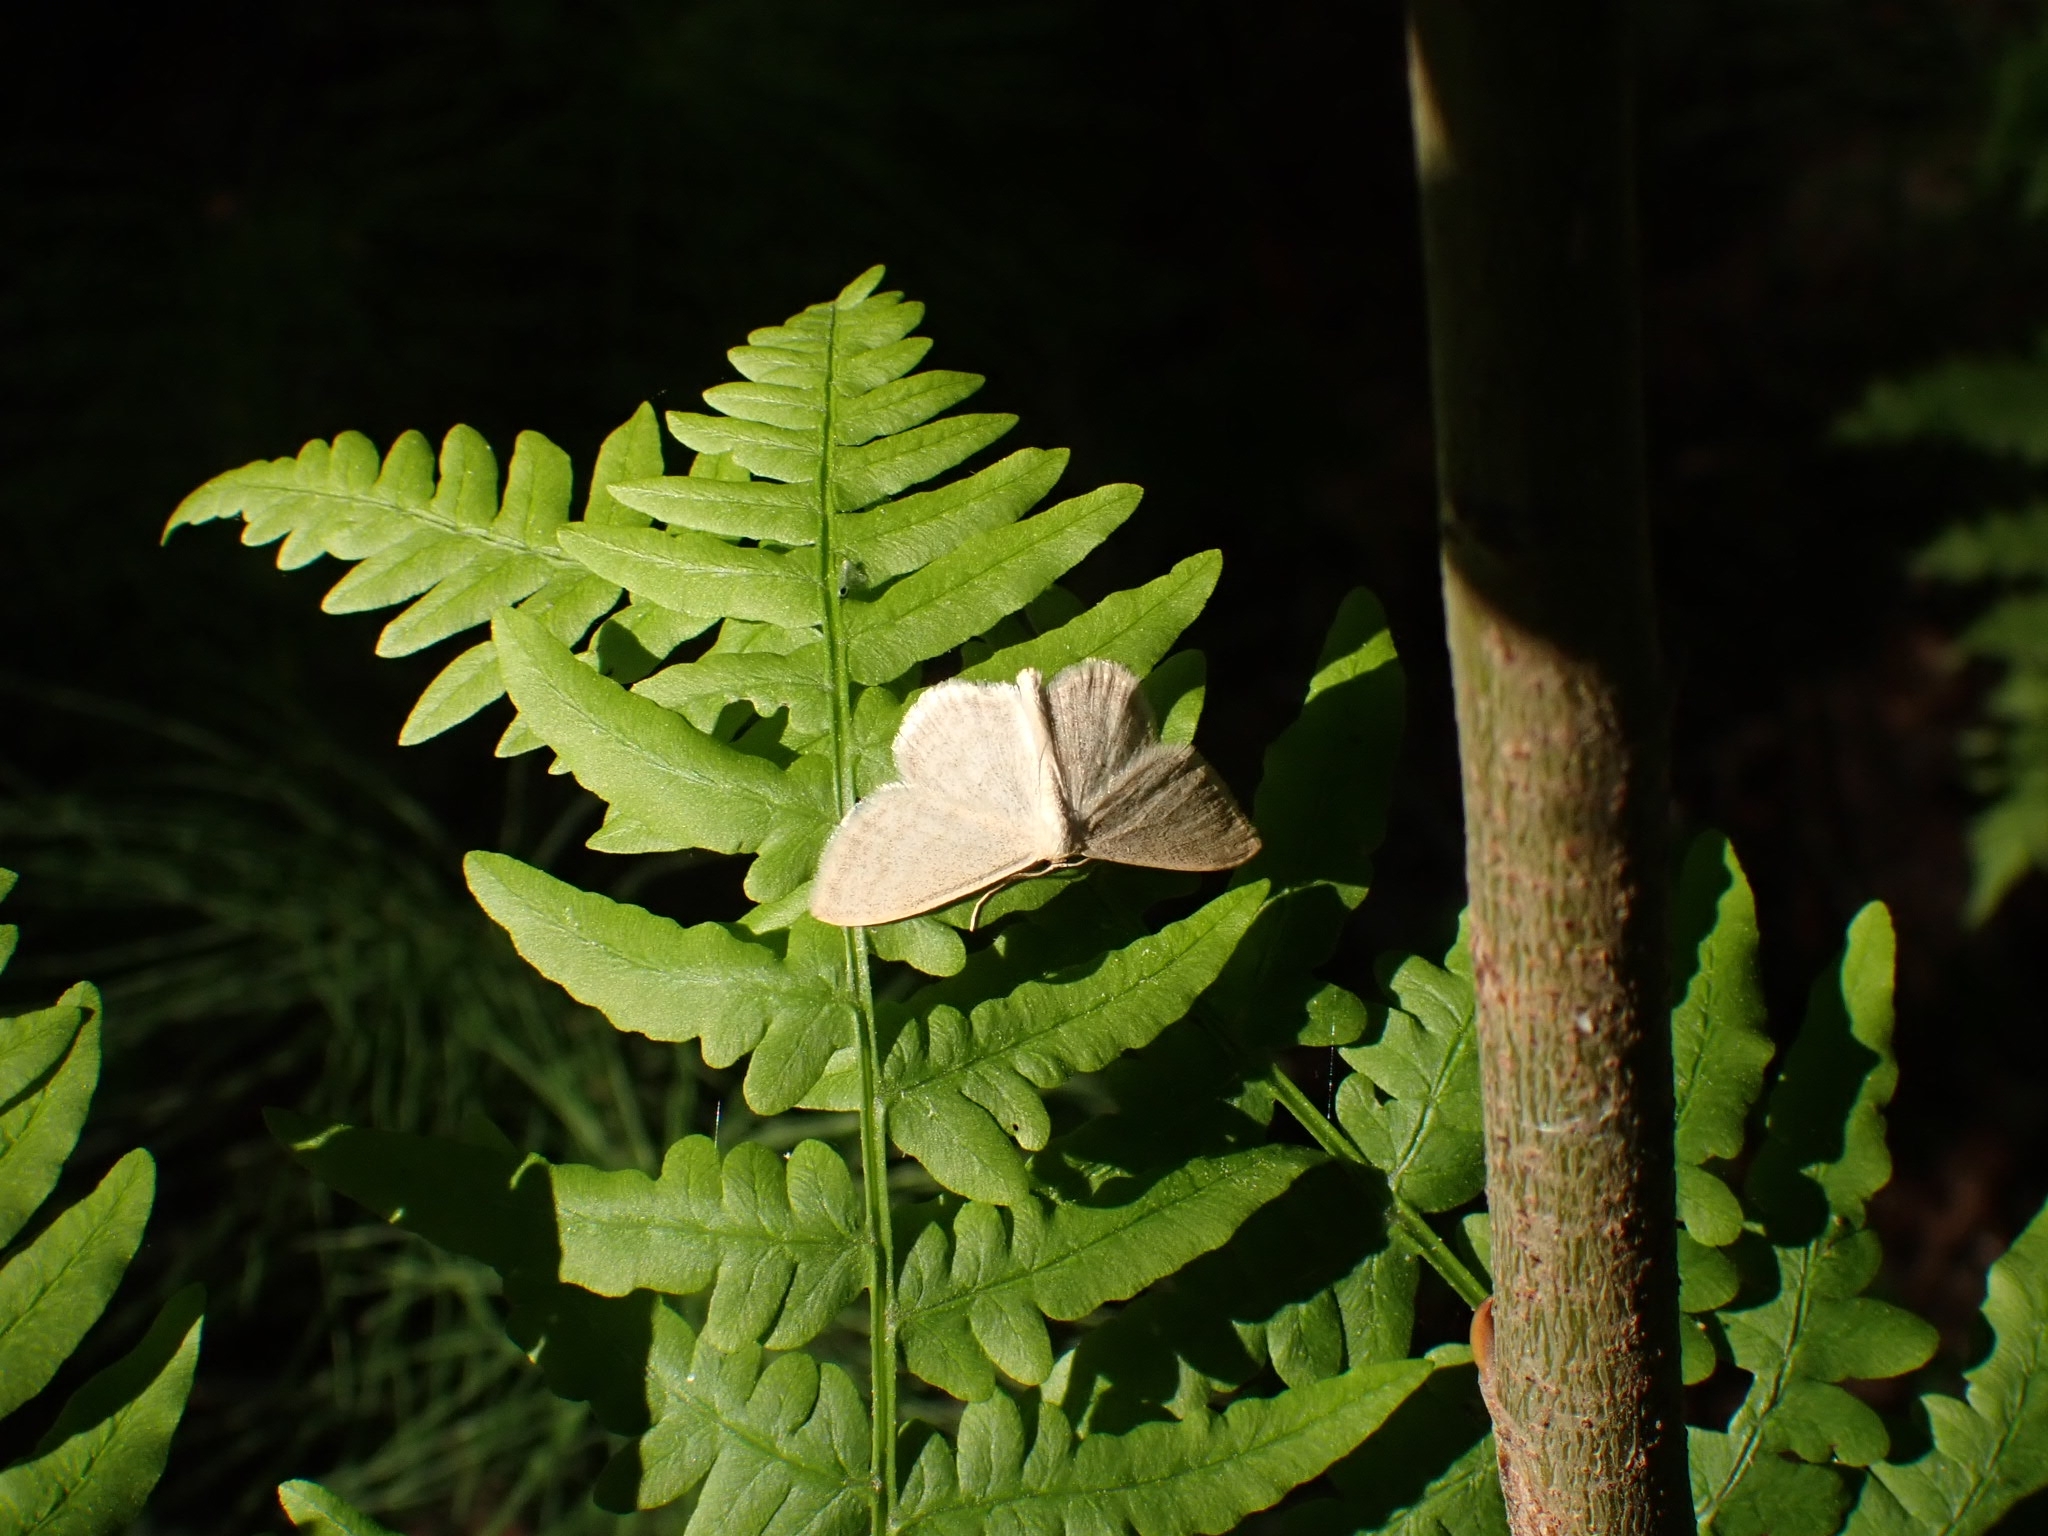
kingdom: Animalia
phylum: Arthropoda
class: Insecta
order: Lepidoptera
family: Geometridae
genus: Scopula
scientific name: Scopula floslactata
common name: Cream wave
